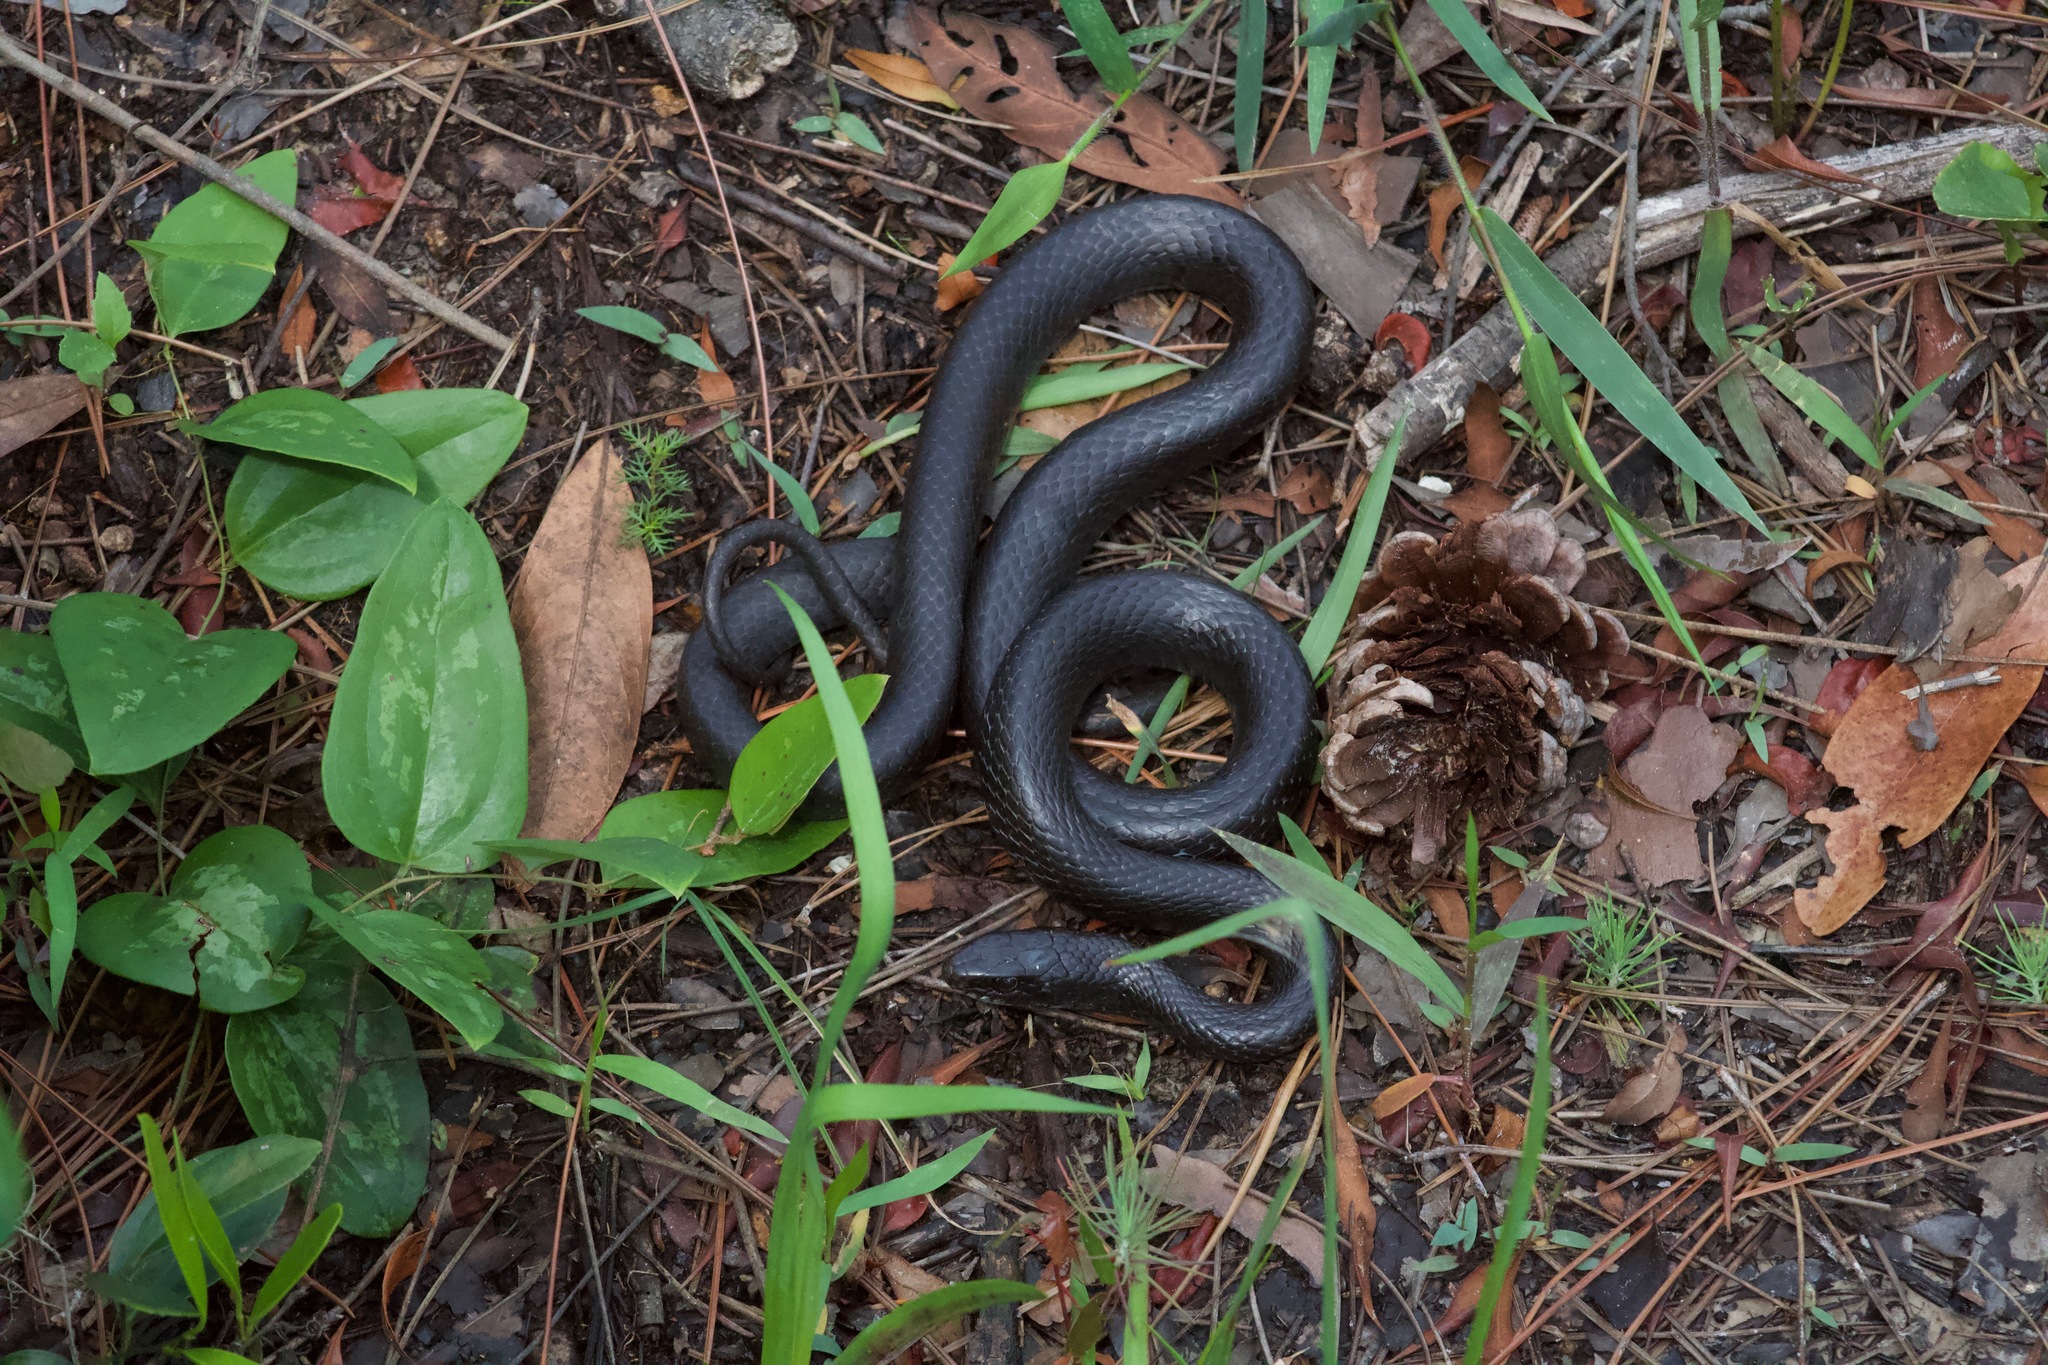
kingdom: Animalia
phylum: Chordata
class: Squamata
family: Colubridae
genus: Coluber
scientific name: Coluber constrictor
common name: Eastern racer
